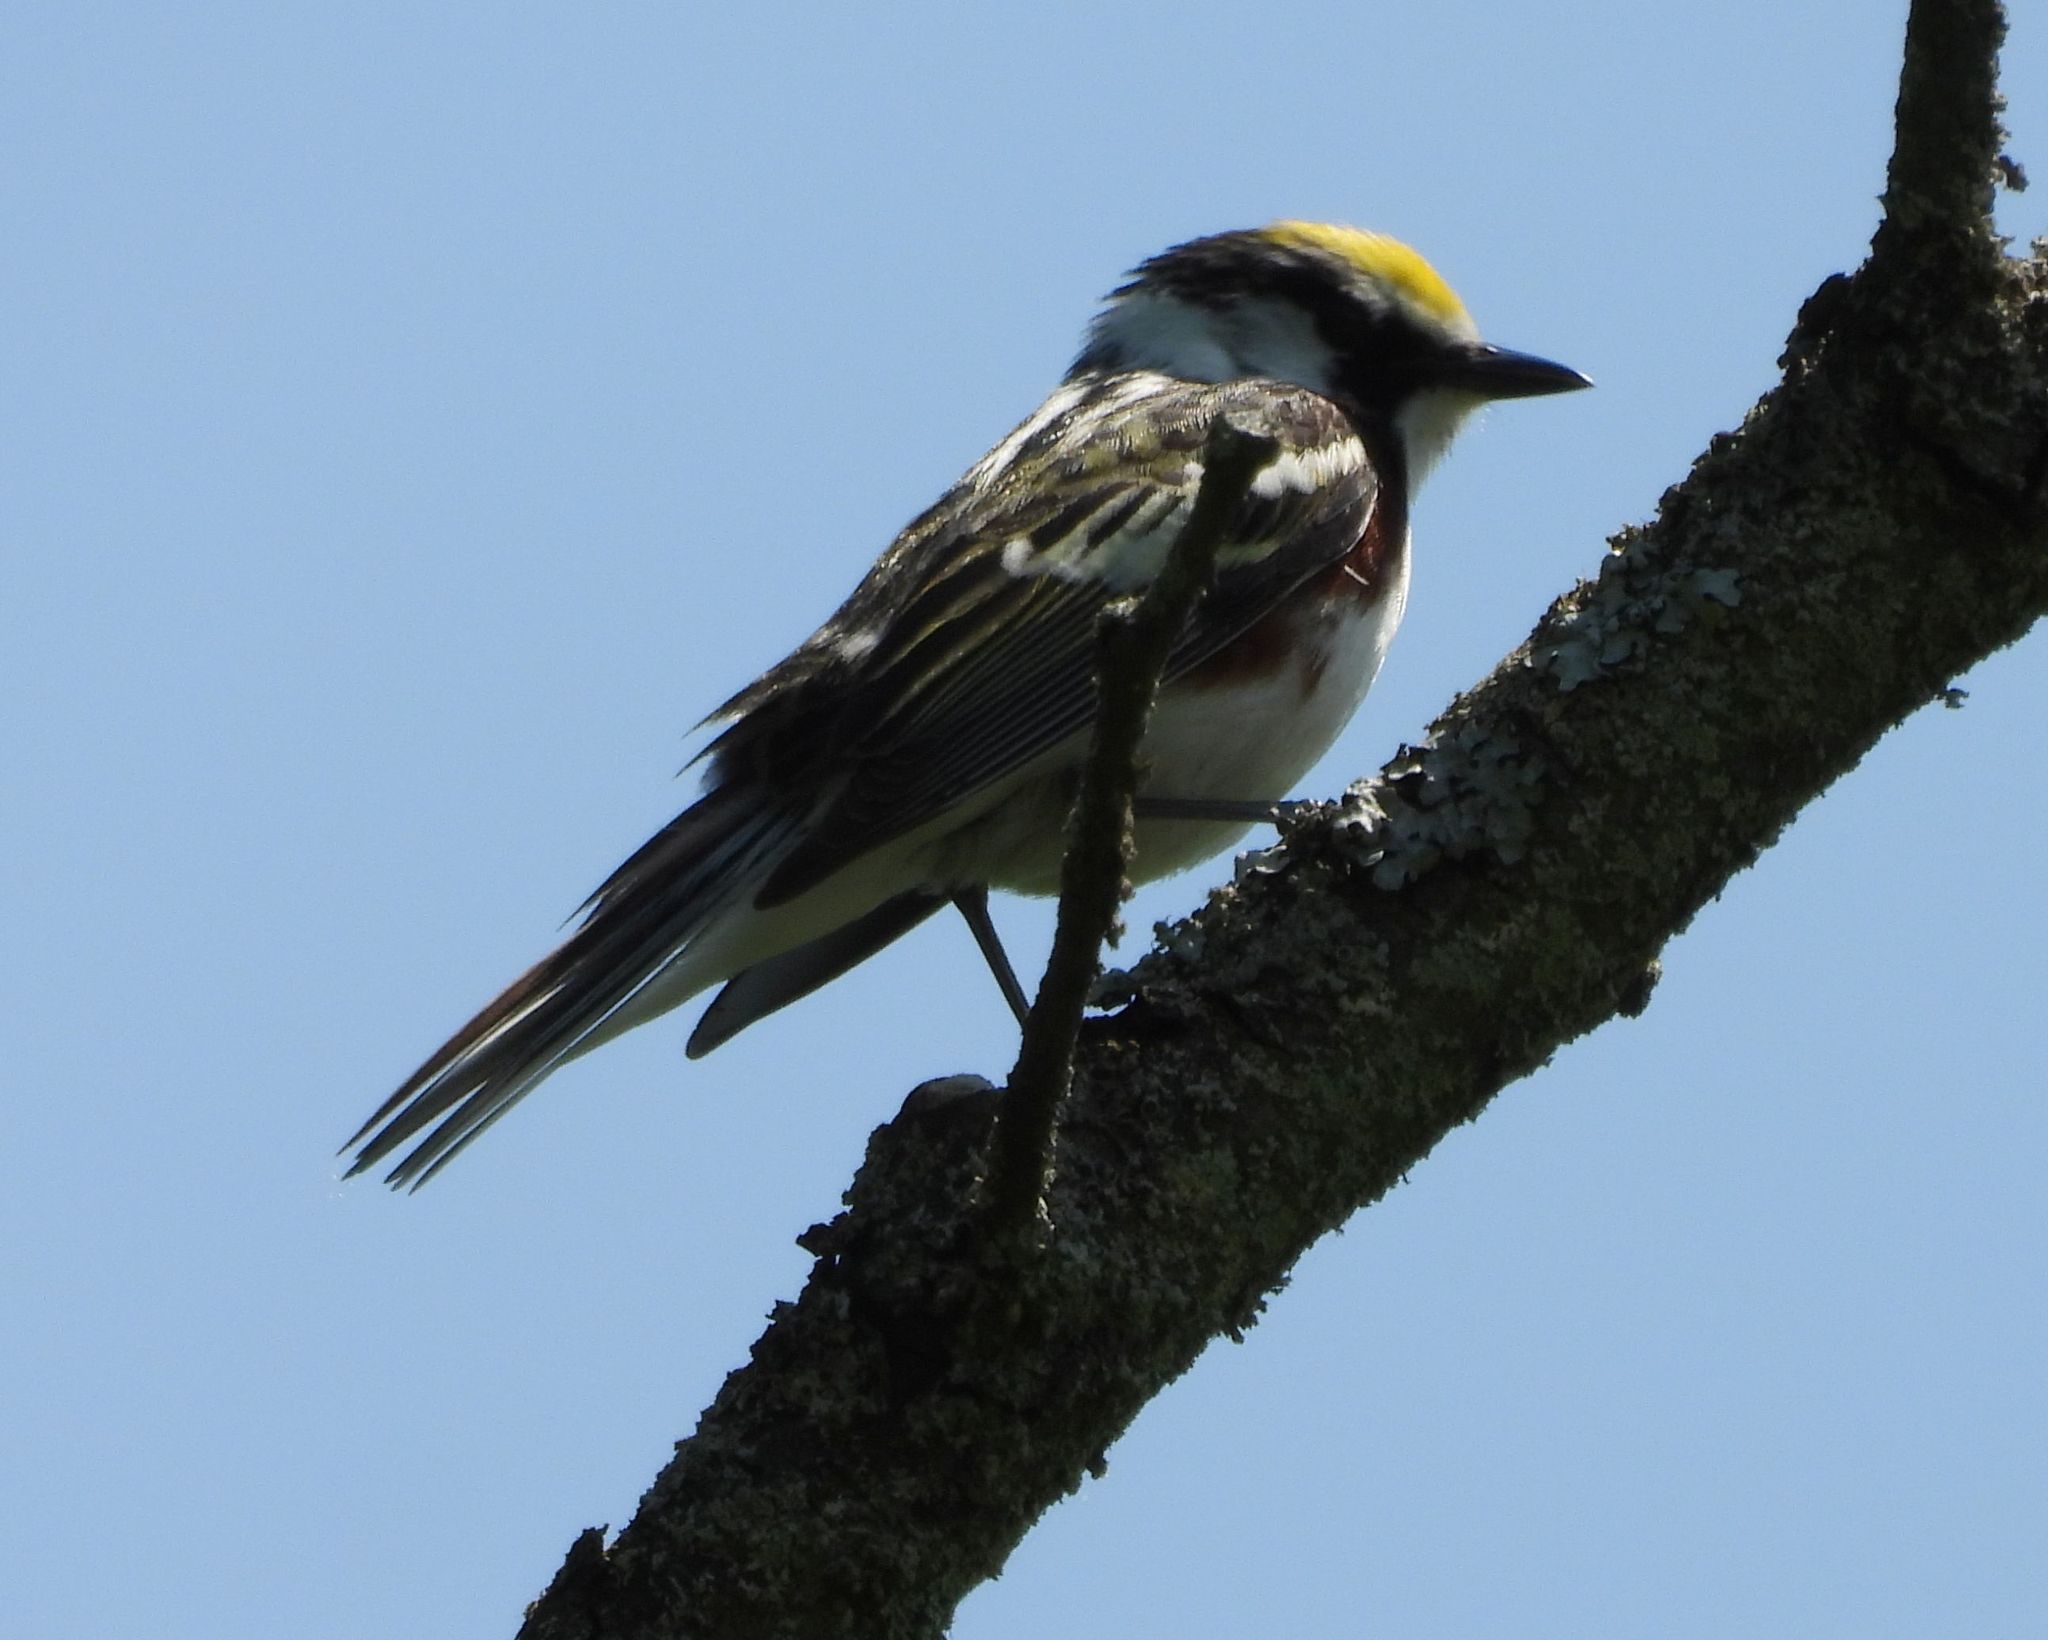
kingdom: Animalia
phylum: Chordata
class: Aves
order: Passeriformes
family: Parulidae
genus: Setophaga
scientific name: Setophaga pensylvanica
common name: Chestnut-sided warbler
